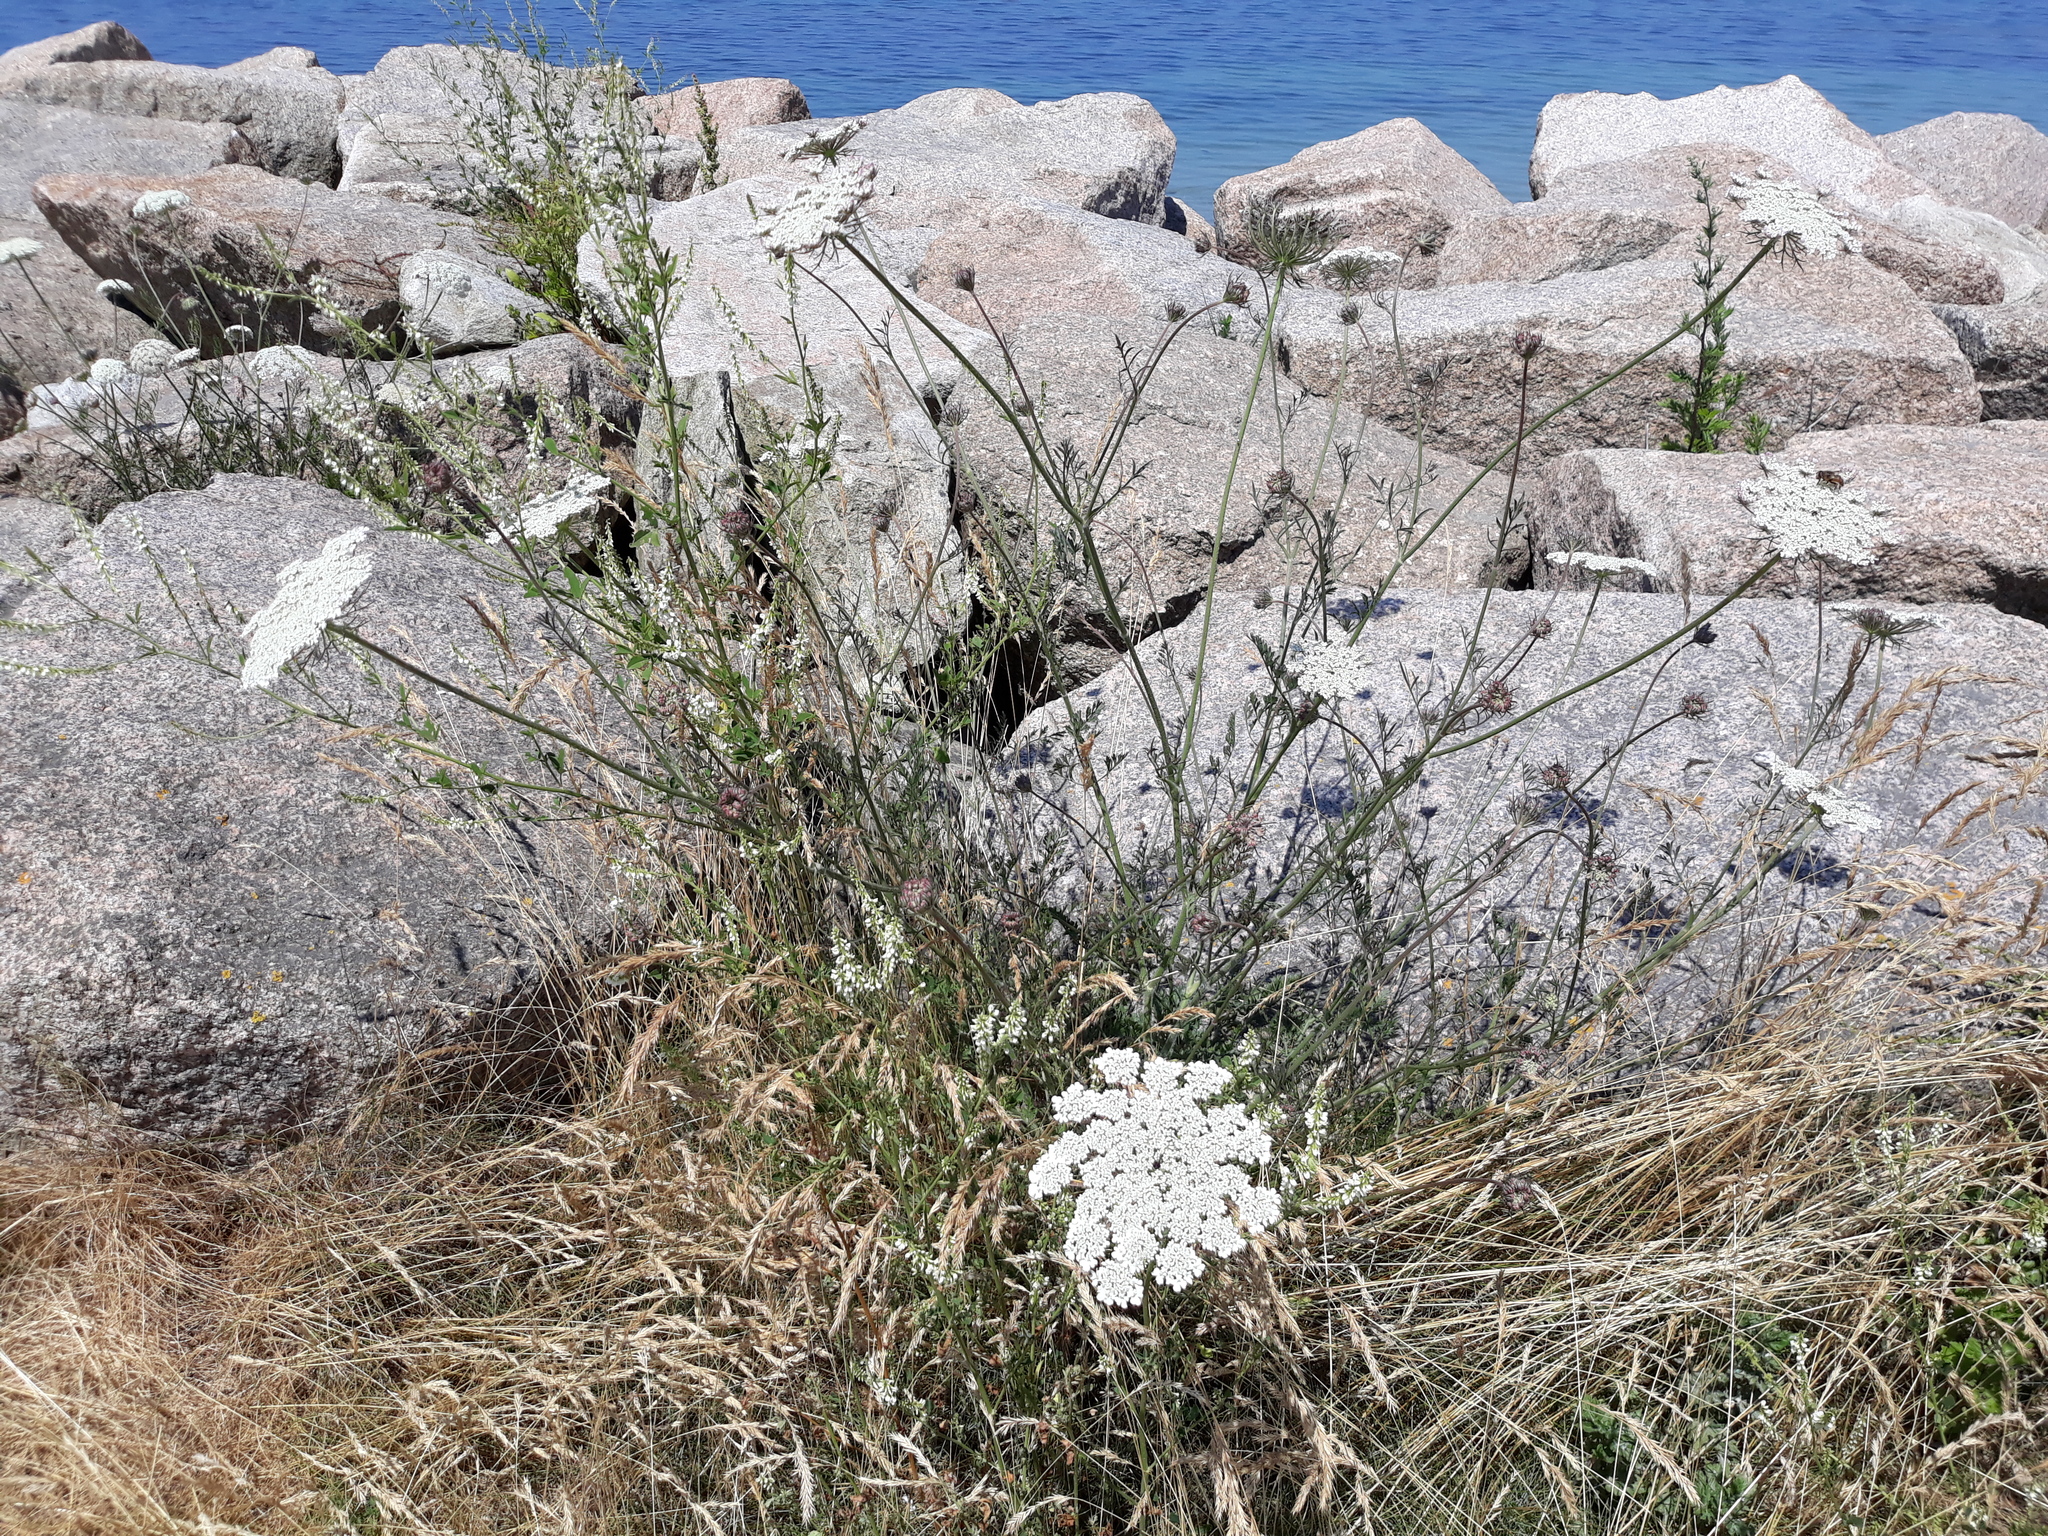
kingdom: Plantae
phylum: Tracheophyta
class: Magnoliopsida
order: Apiales
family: Apiaceae
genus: Daucus
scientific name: Daucus carota
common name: Wild carrot
